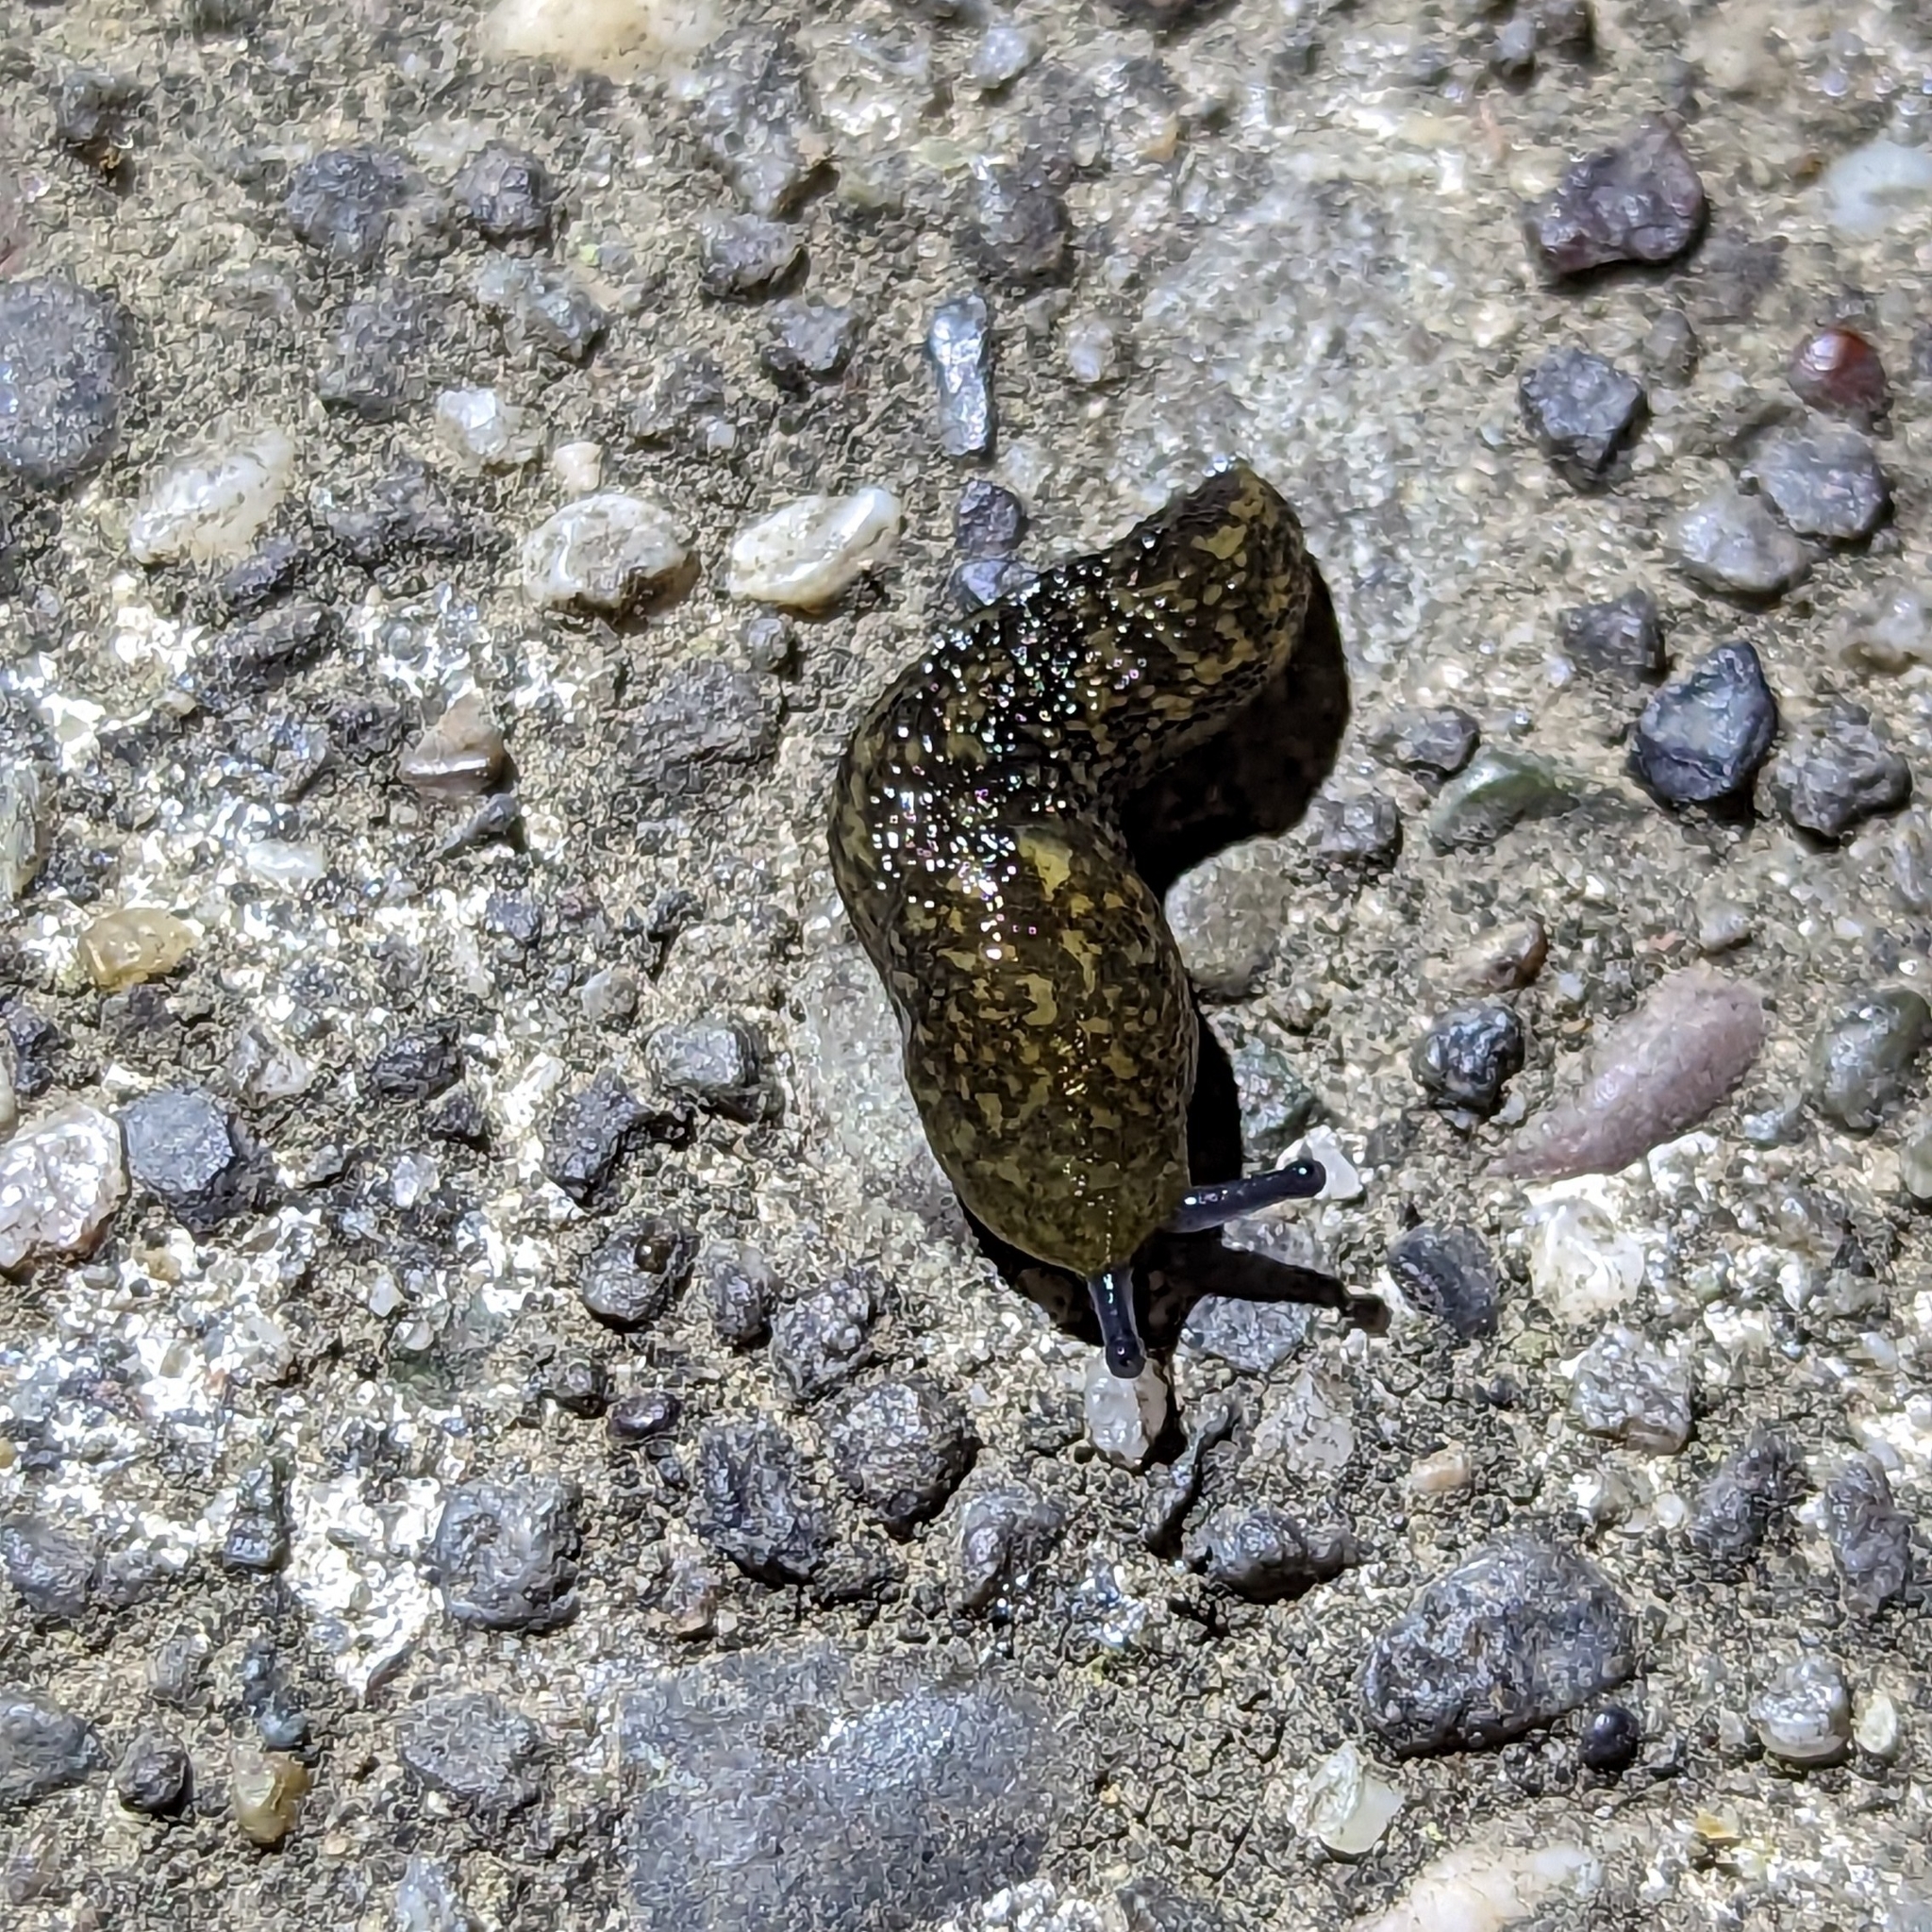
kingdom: Animalia
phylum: Mollusca
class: Gastropoda
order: Stylommatophora
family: Limacidae
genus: Limacus
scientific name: Limacus flavus
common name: Yellow gardenslug
